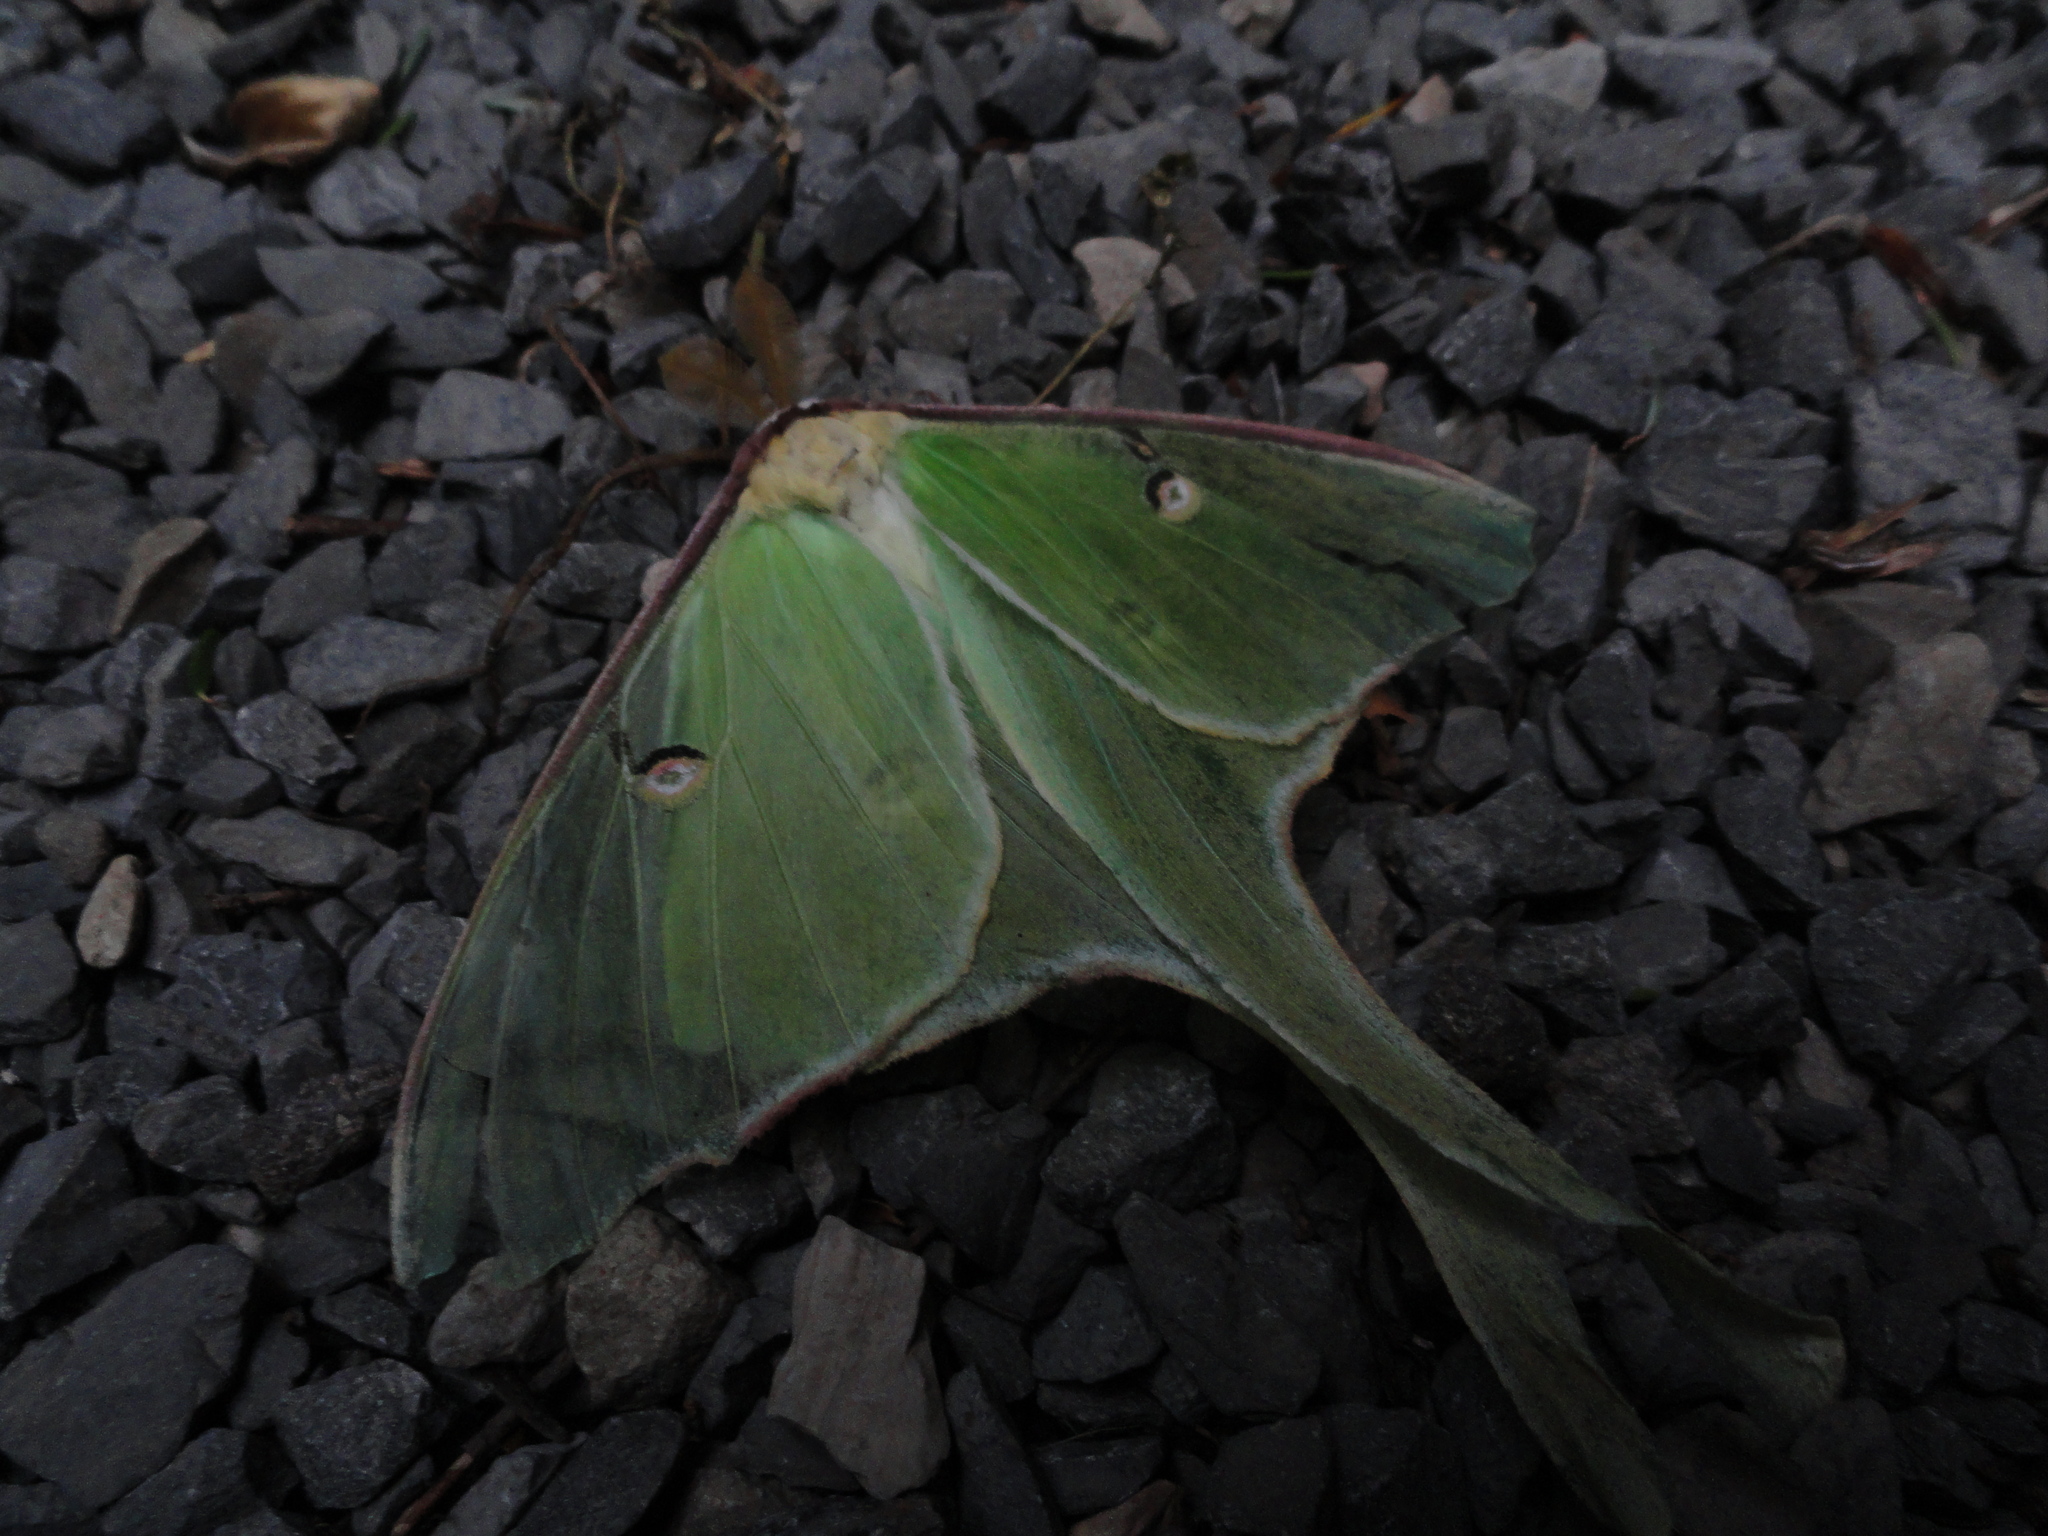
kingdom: Animalia
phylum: Arthropoda
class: Insecta
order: Lepidoptera
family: Saturniidae
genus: Actias
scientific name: Actias luna
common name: Luna moth
